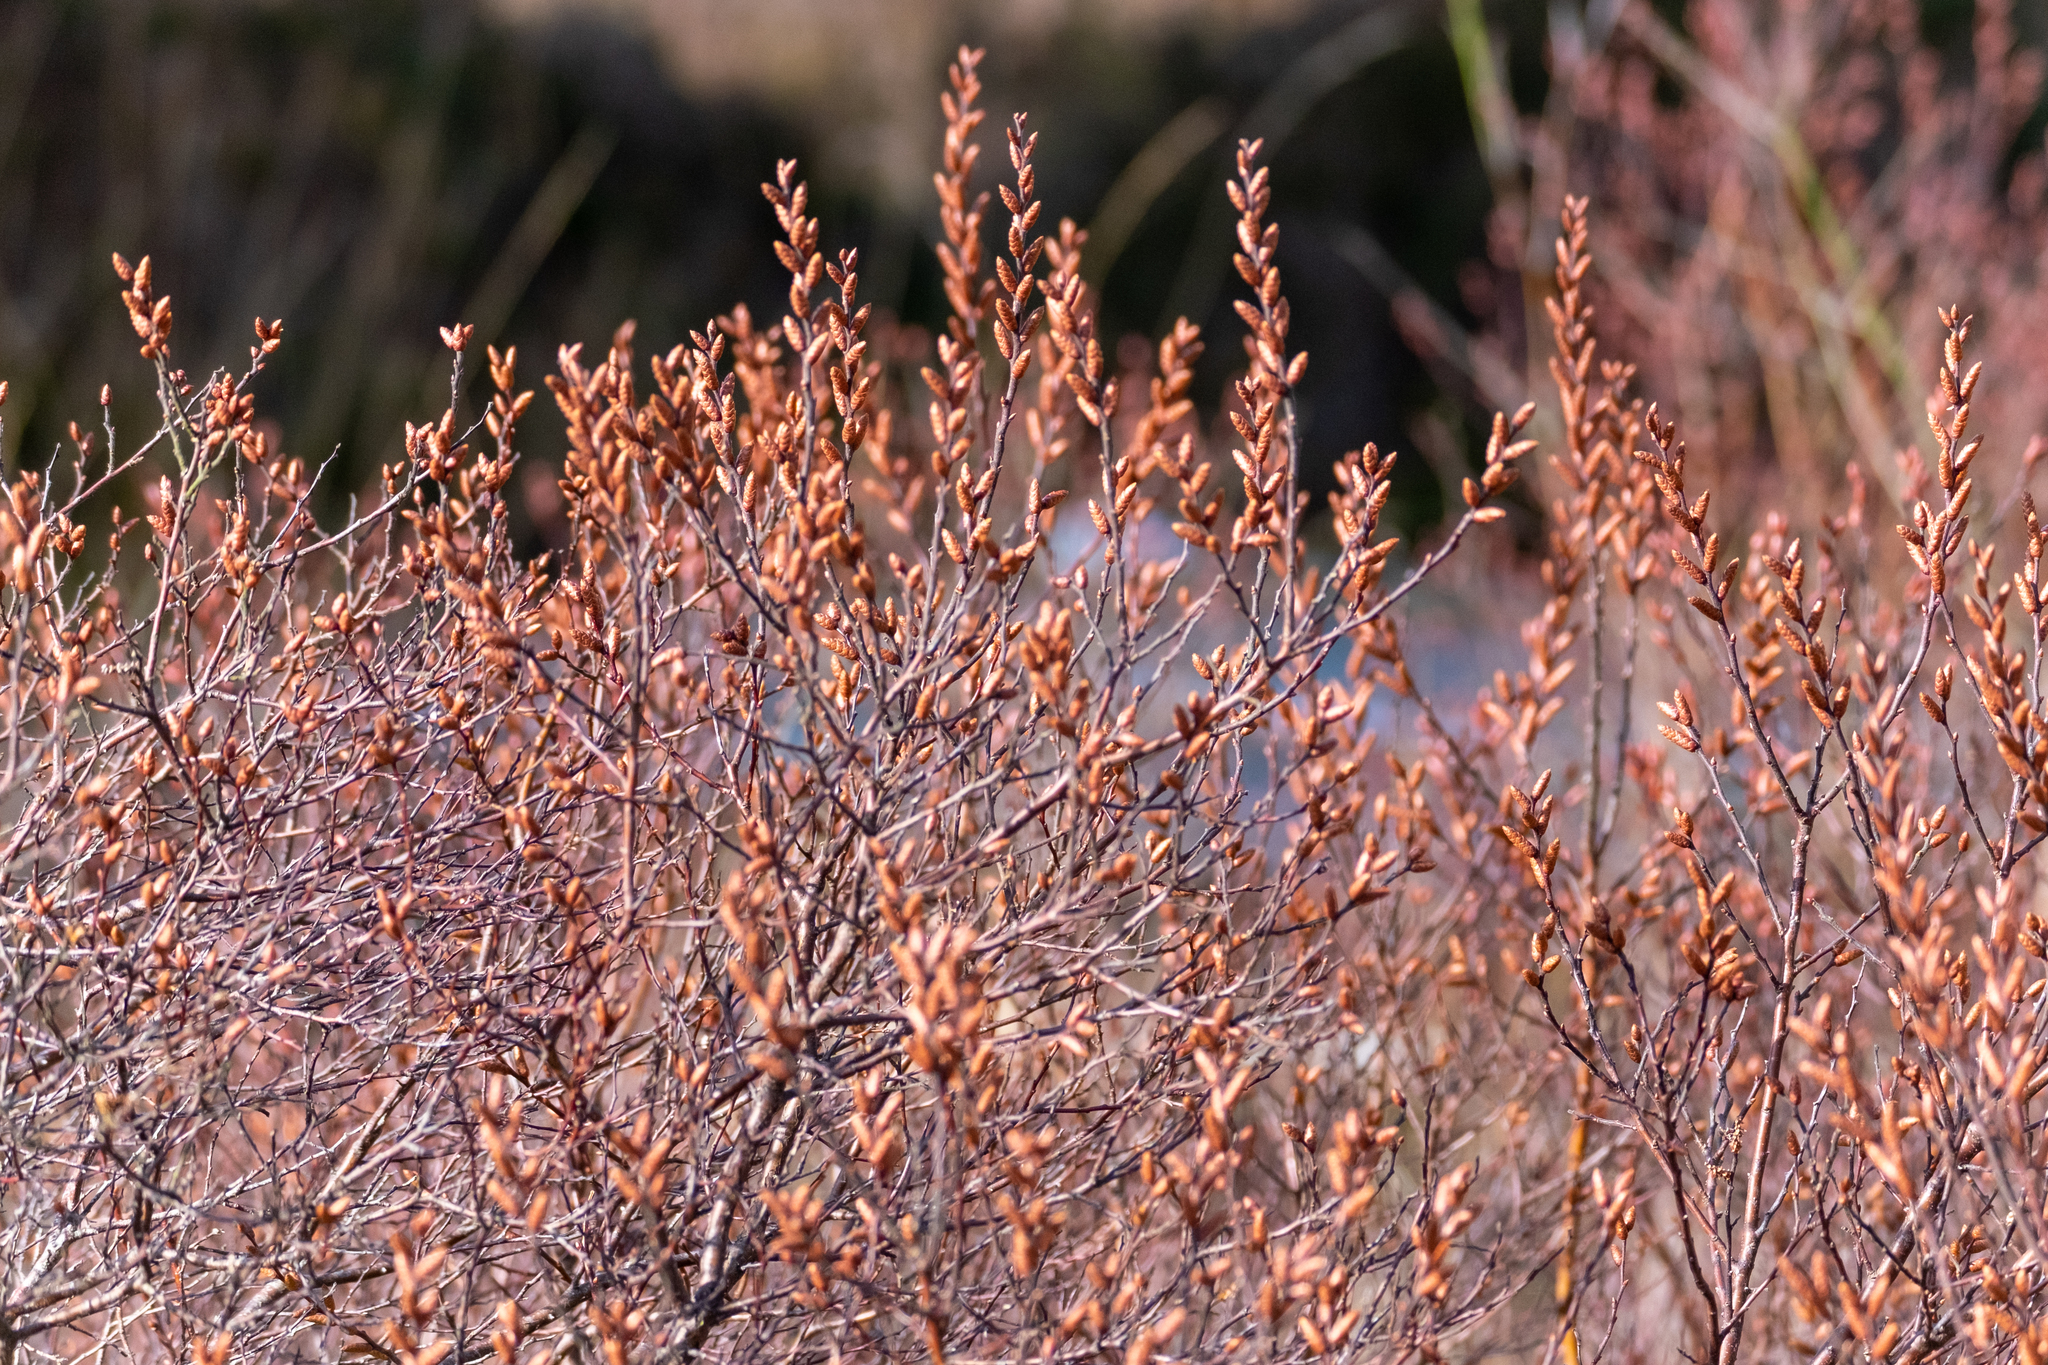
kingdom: Plantae
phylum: Tracheophyta
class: Magnoliopsida
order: Fagales
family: Myricaceae
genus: Myrica
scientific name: Myrica gale
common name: Sweet gale
